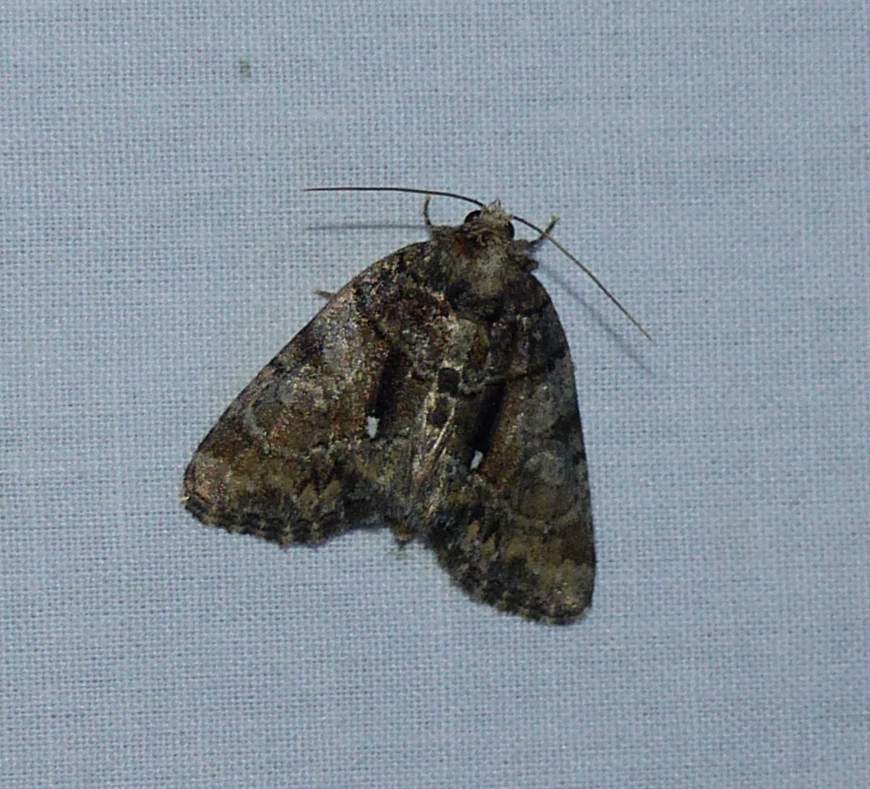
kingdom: Animalia
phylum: Arthropoda
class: Insecta
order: Lepidoptera
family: Noctuidae
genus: Chytonix
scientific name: Chytonix palliatricula
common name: Cloaked marvel
